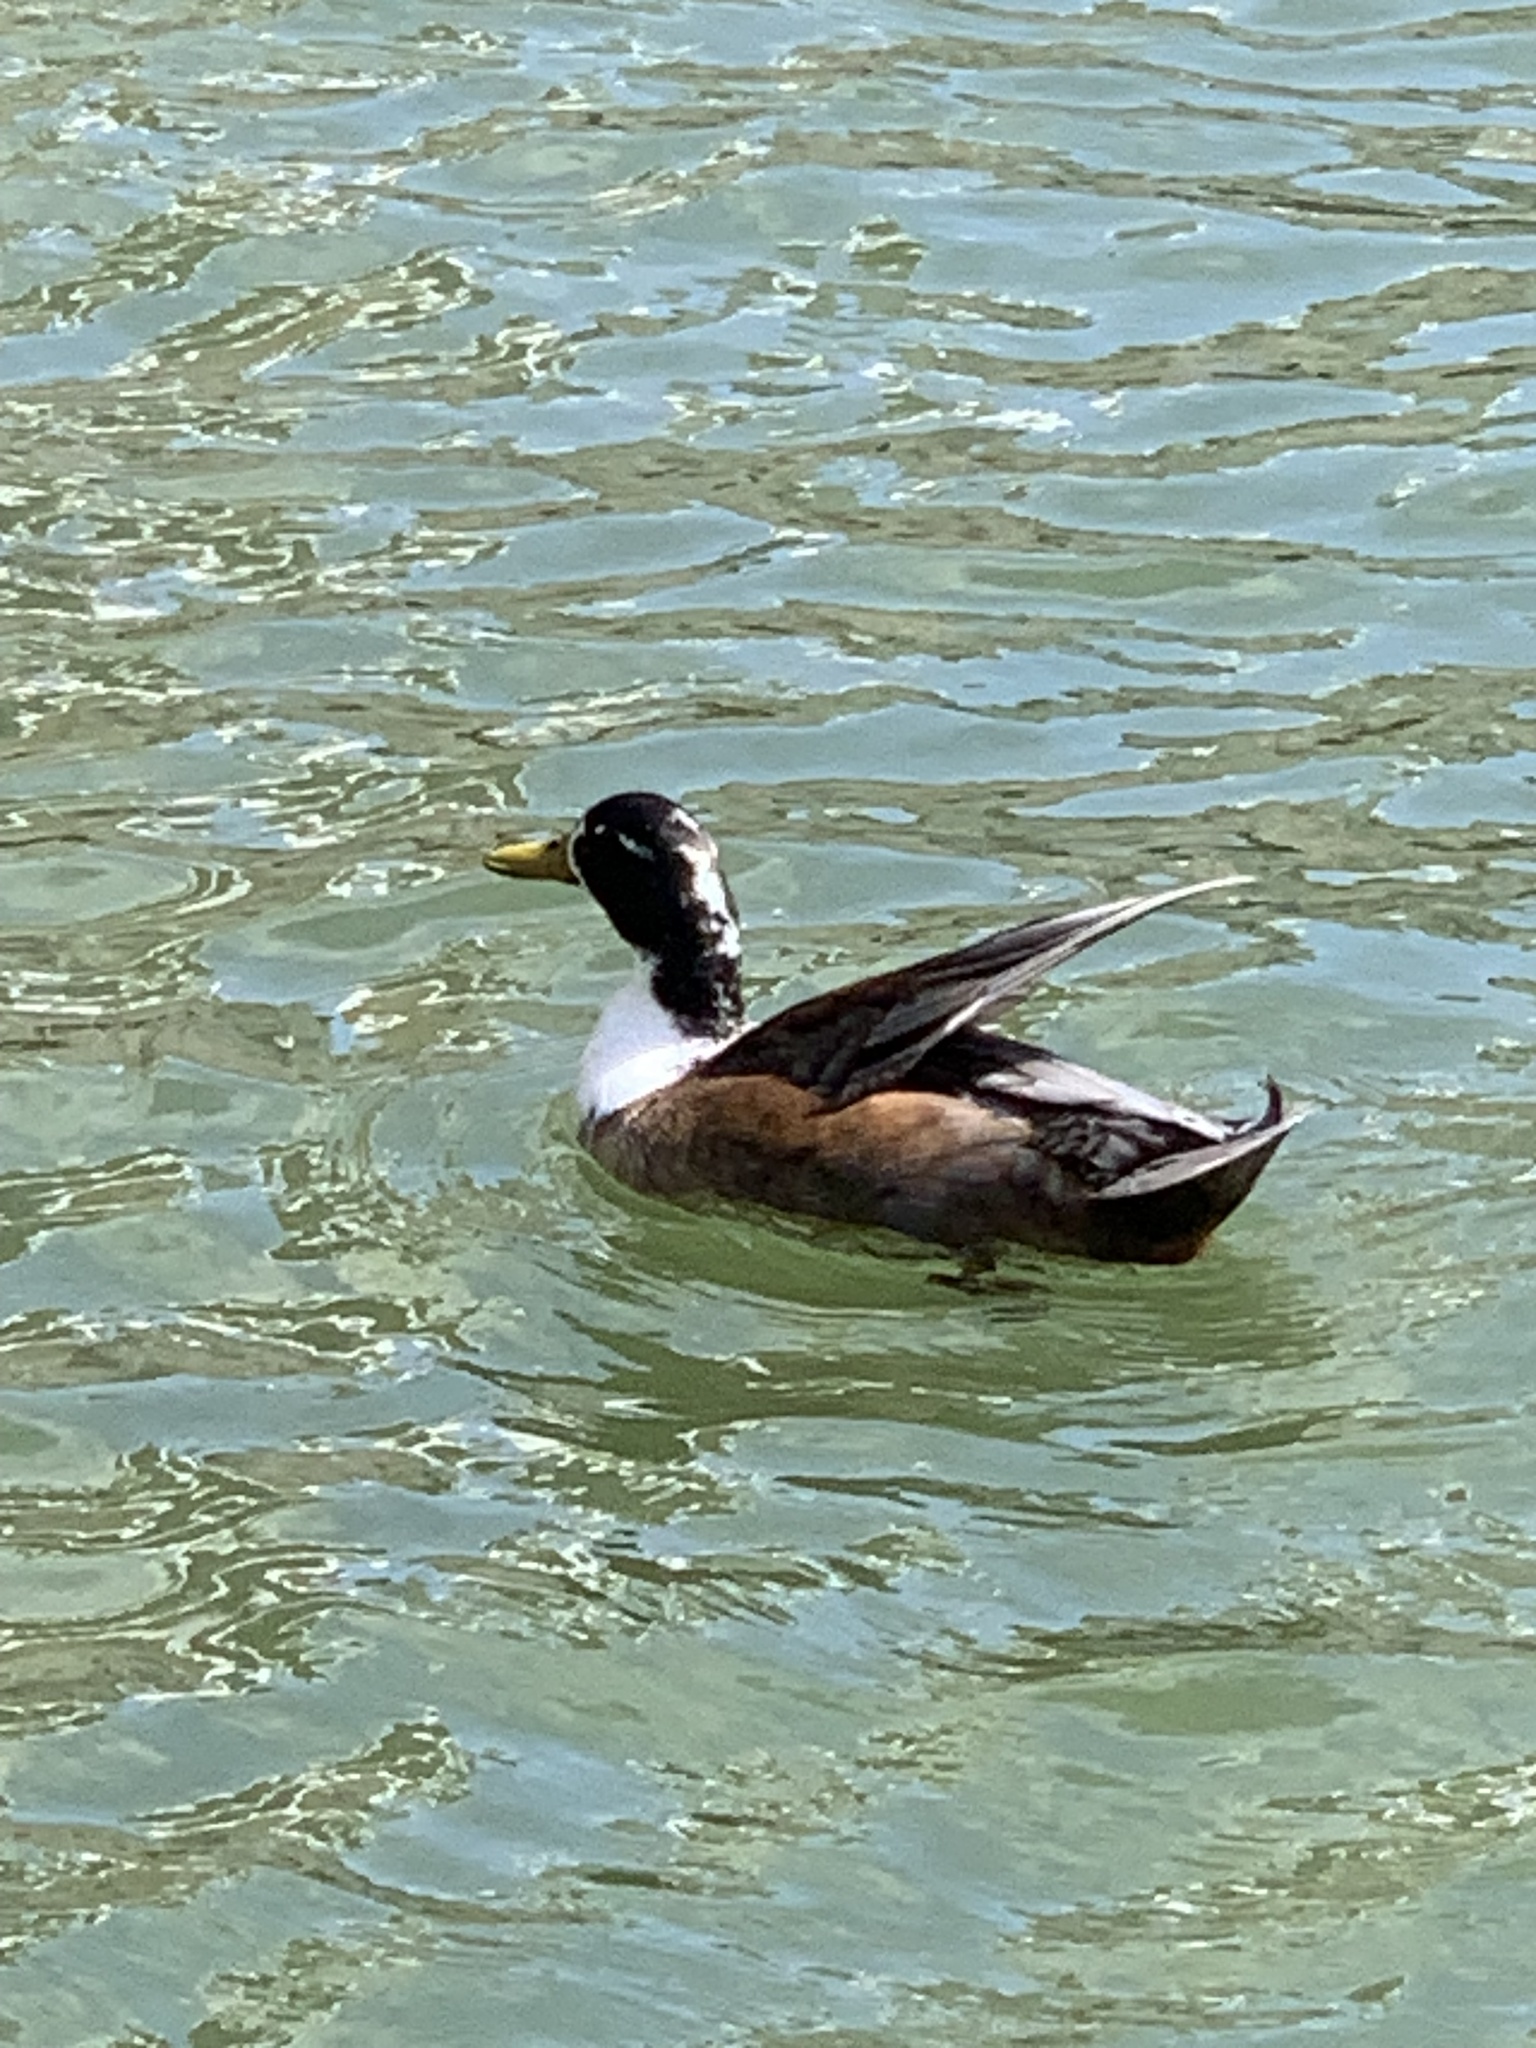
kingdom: Animalia
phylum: Chordata
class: Aves
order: Anseriformes
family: Anatidae
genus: Anas
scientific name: Anas platyrhynchos
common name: Mallard
